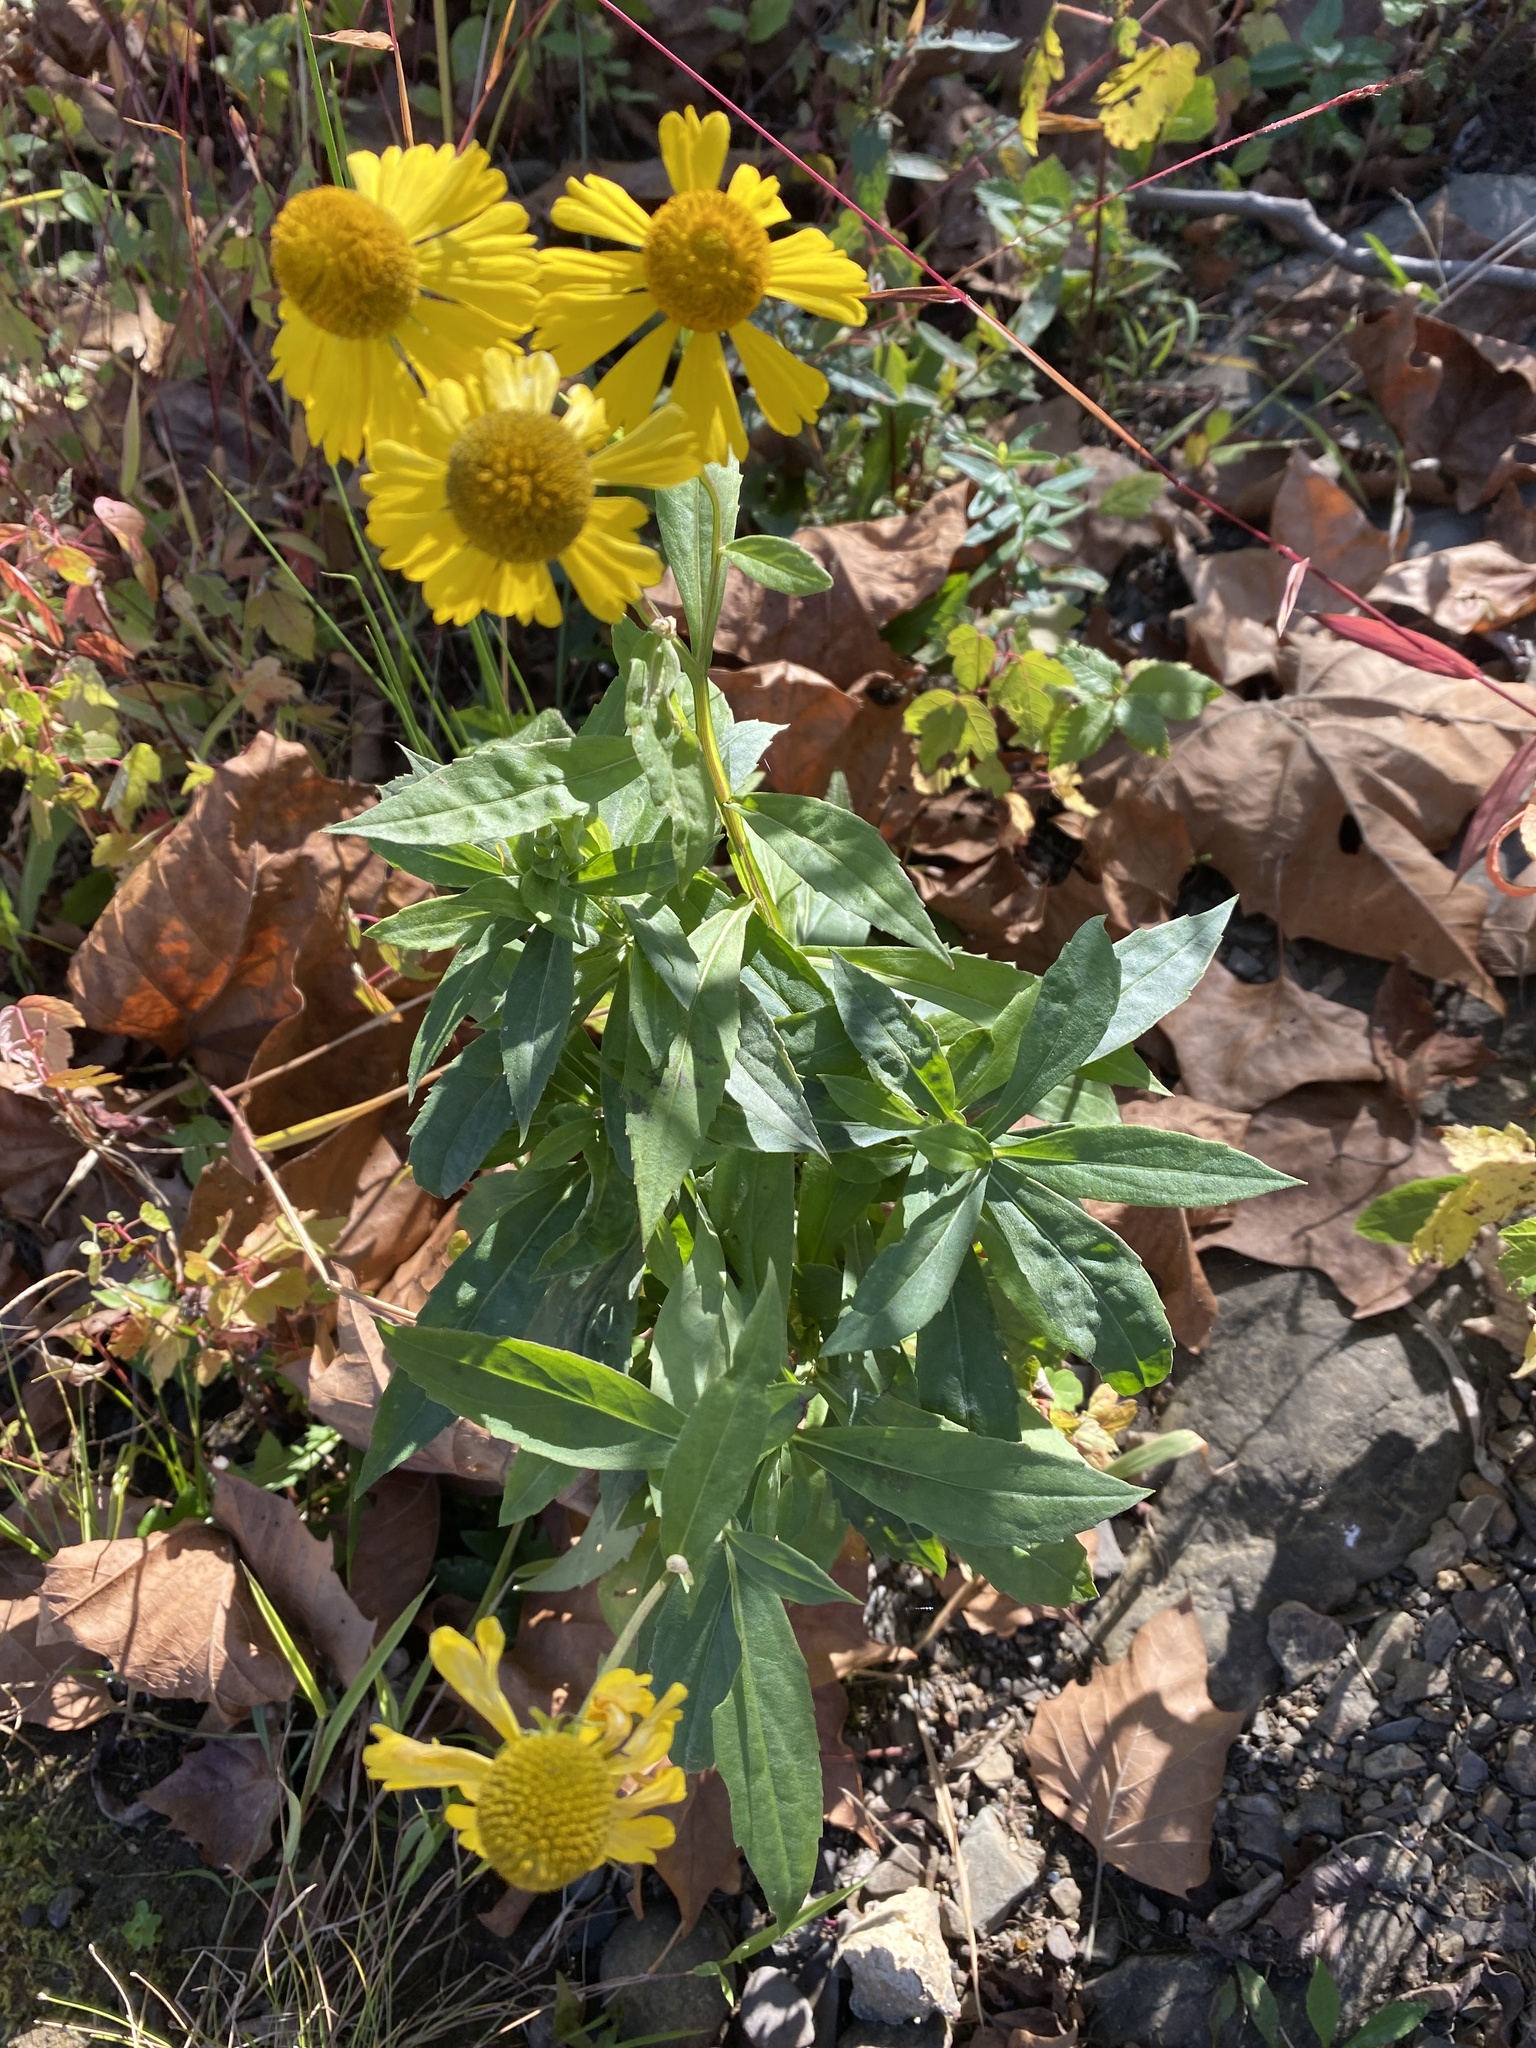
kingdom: Plantae
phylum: Tracheophyta
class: Magnoliopsida
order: Asterales
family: Asteraceae
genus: Helenium
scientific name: Helenium autumnale
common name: Sneezeweed
